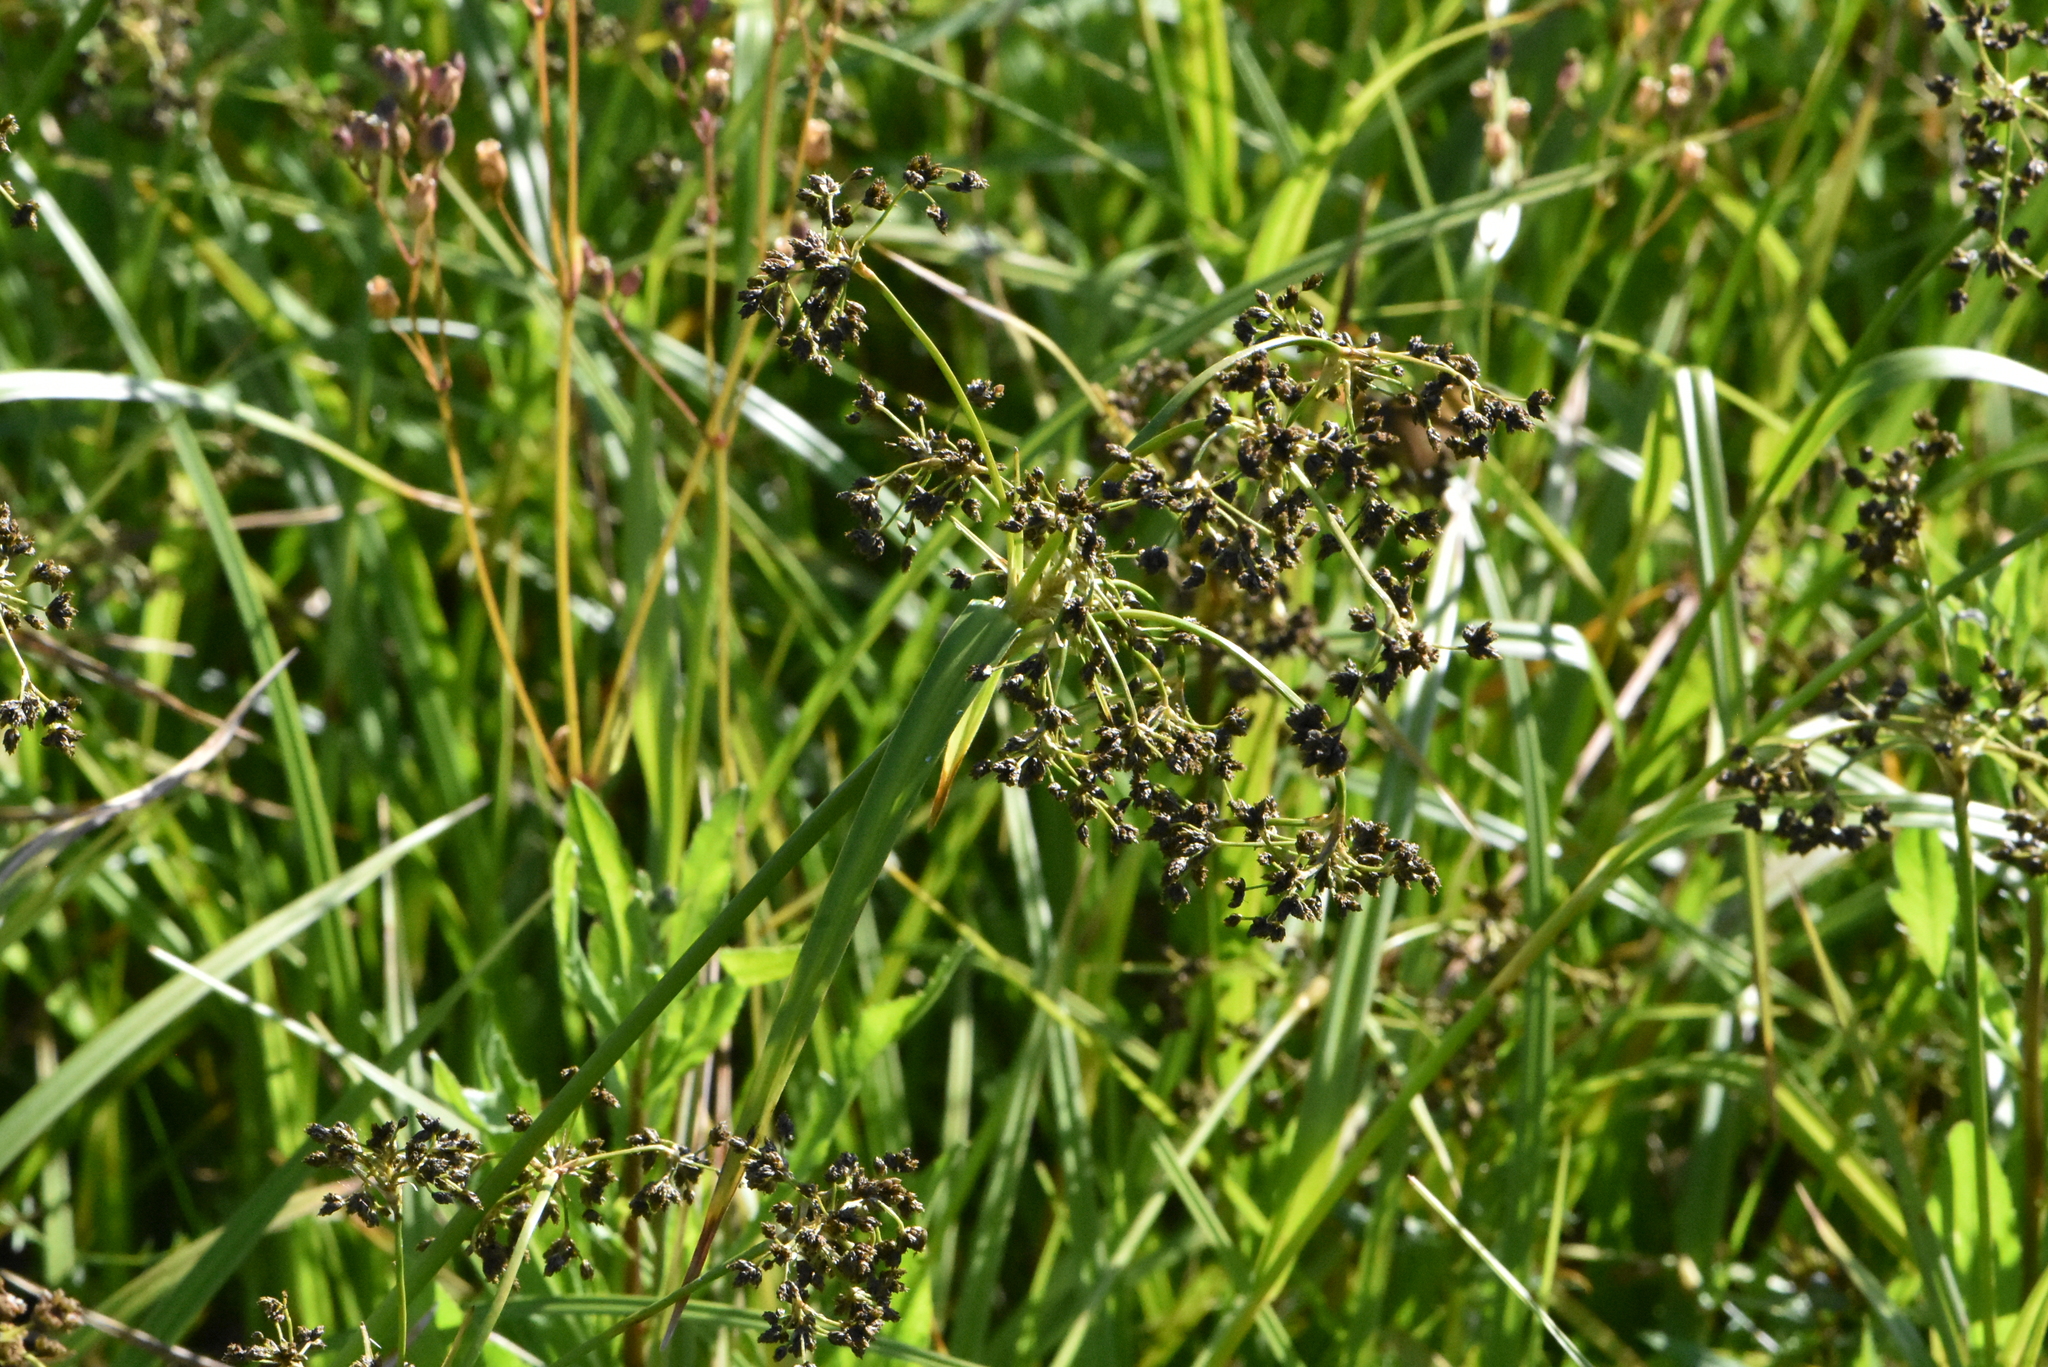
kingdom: Plantae
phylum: Tracheophyta
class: Liliopsida
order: Poales
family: Cyperaceae
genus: Scirpus
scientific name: Scirpus sylvaticus
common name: Wood club-rush
